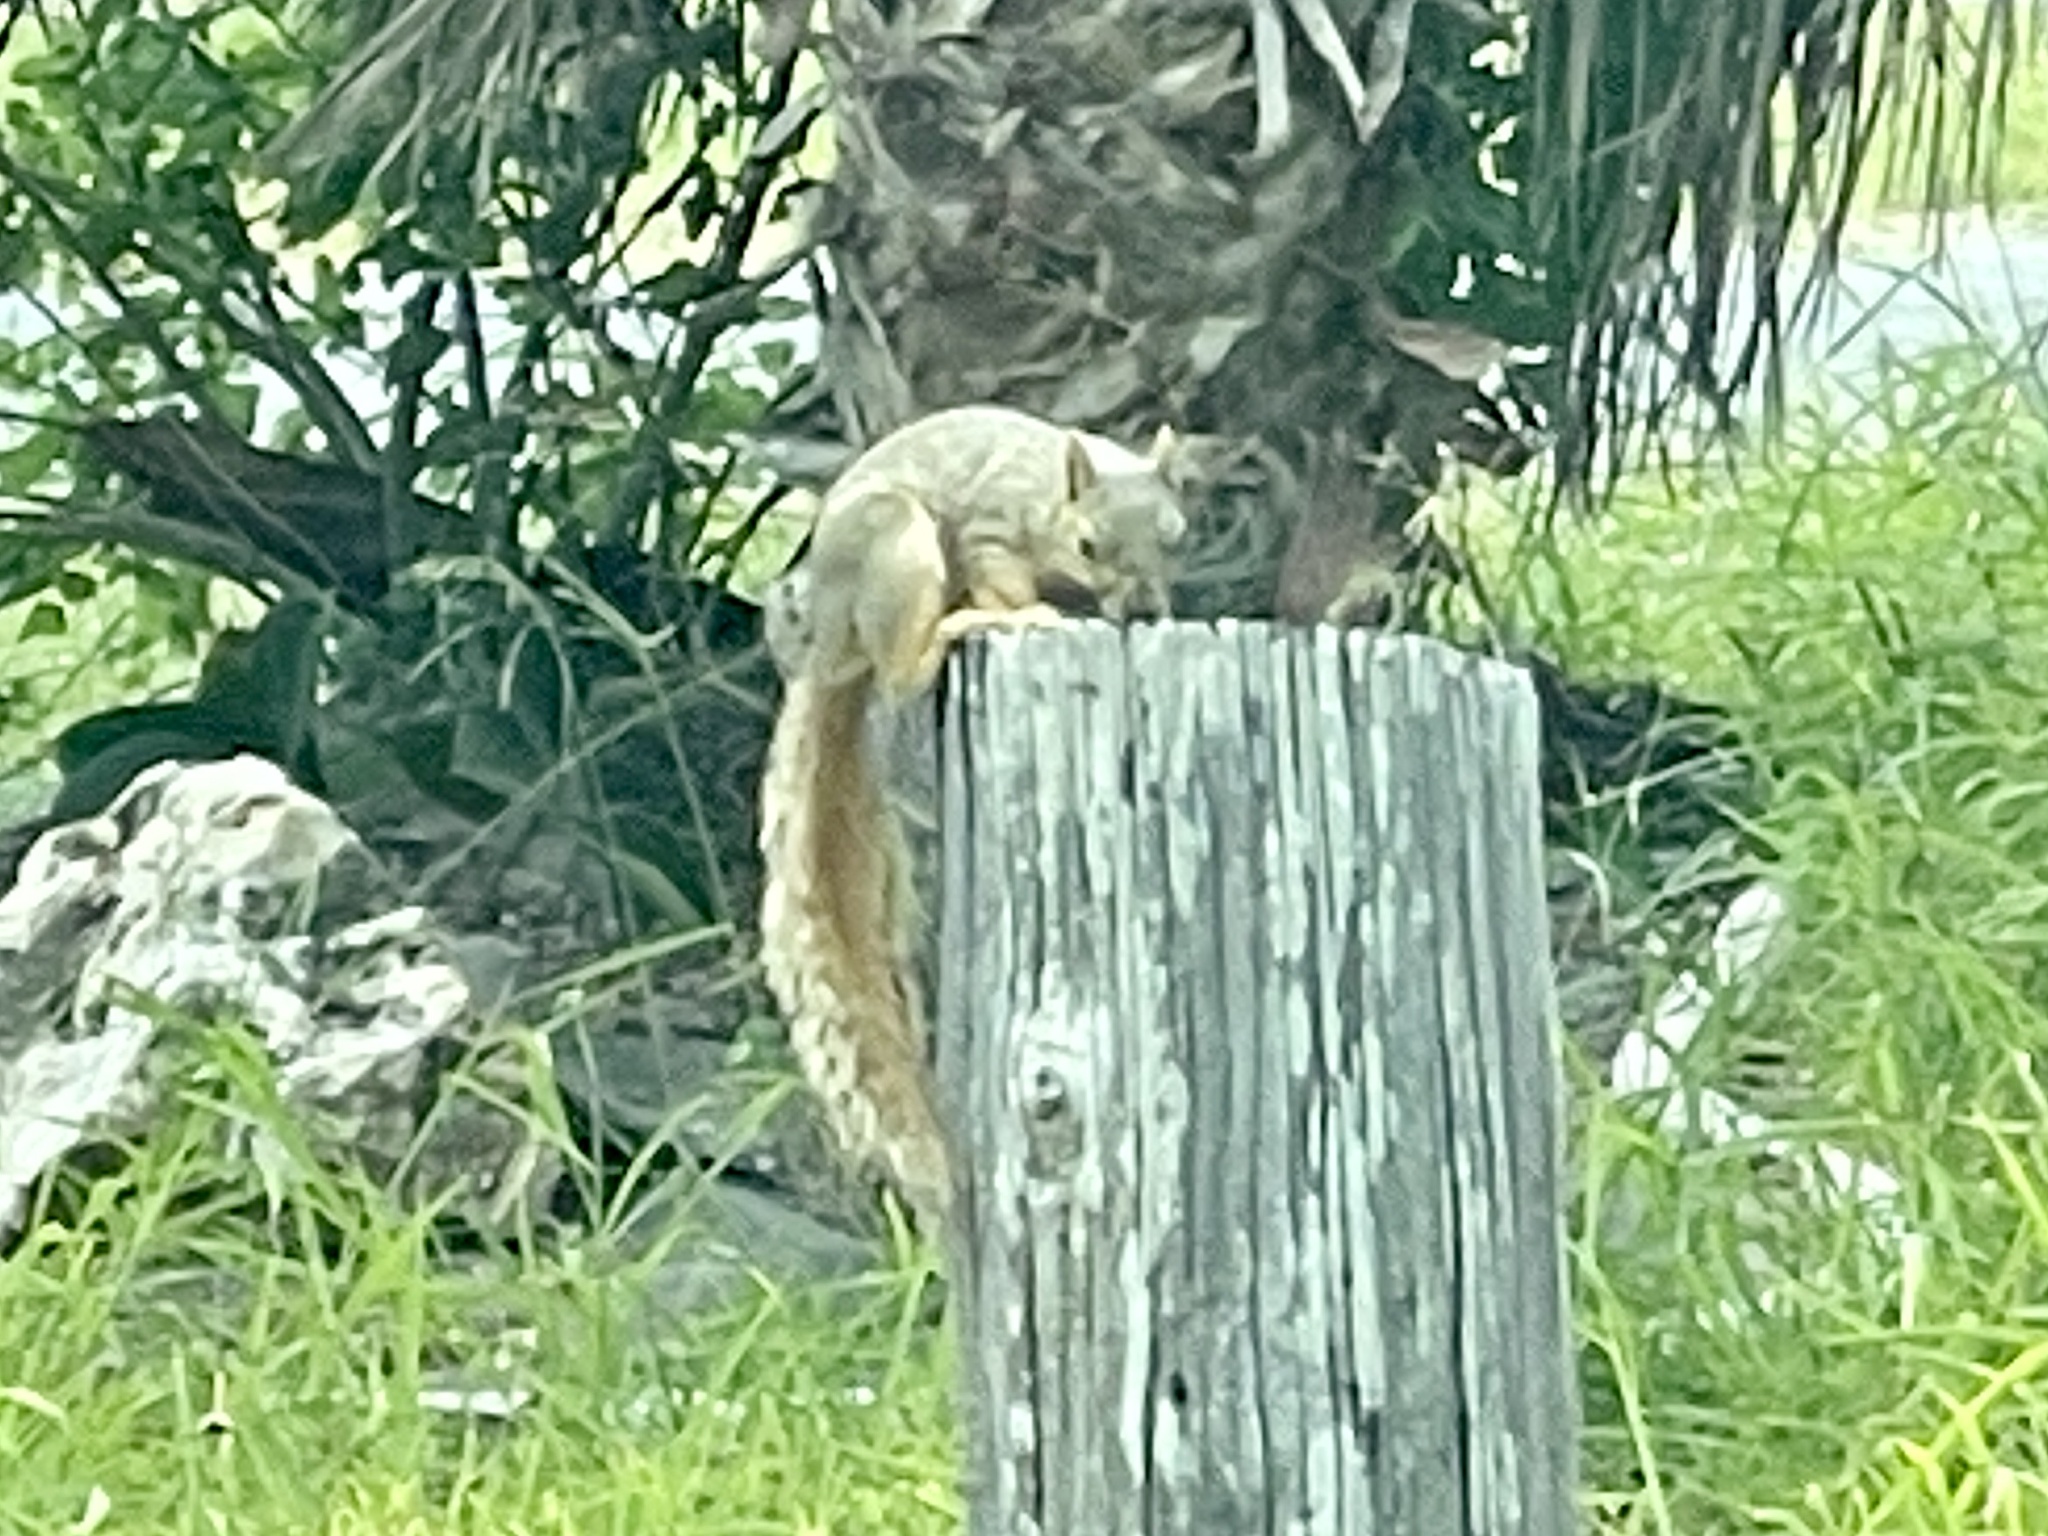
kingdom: Animalia
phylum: Chordata
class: Mammalia
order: Rodentia
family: Sciuridae
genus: Sciurus
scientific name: Sciurus niger
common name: Fox squirrel
